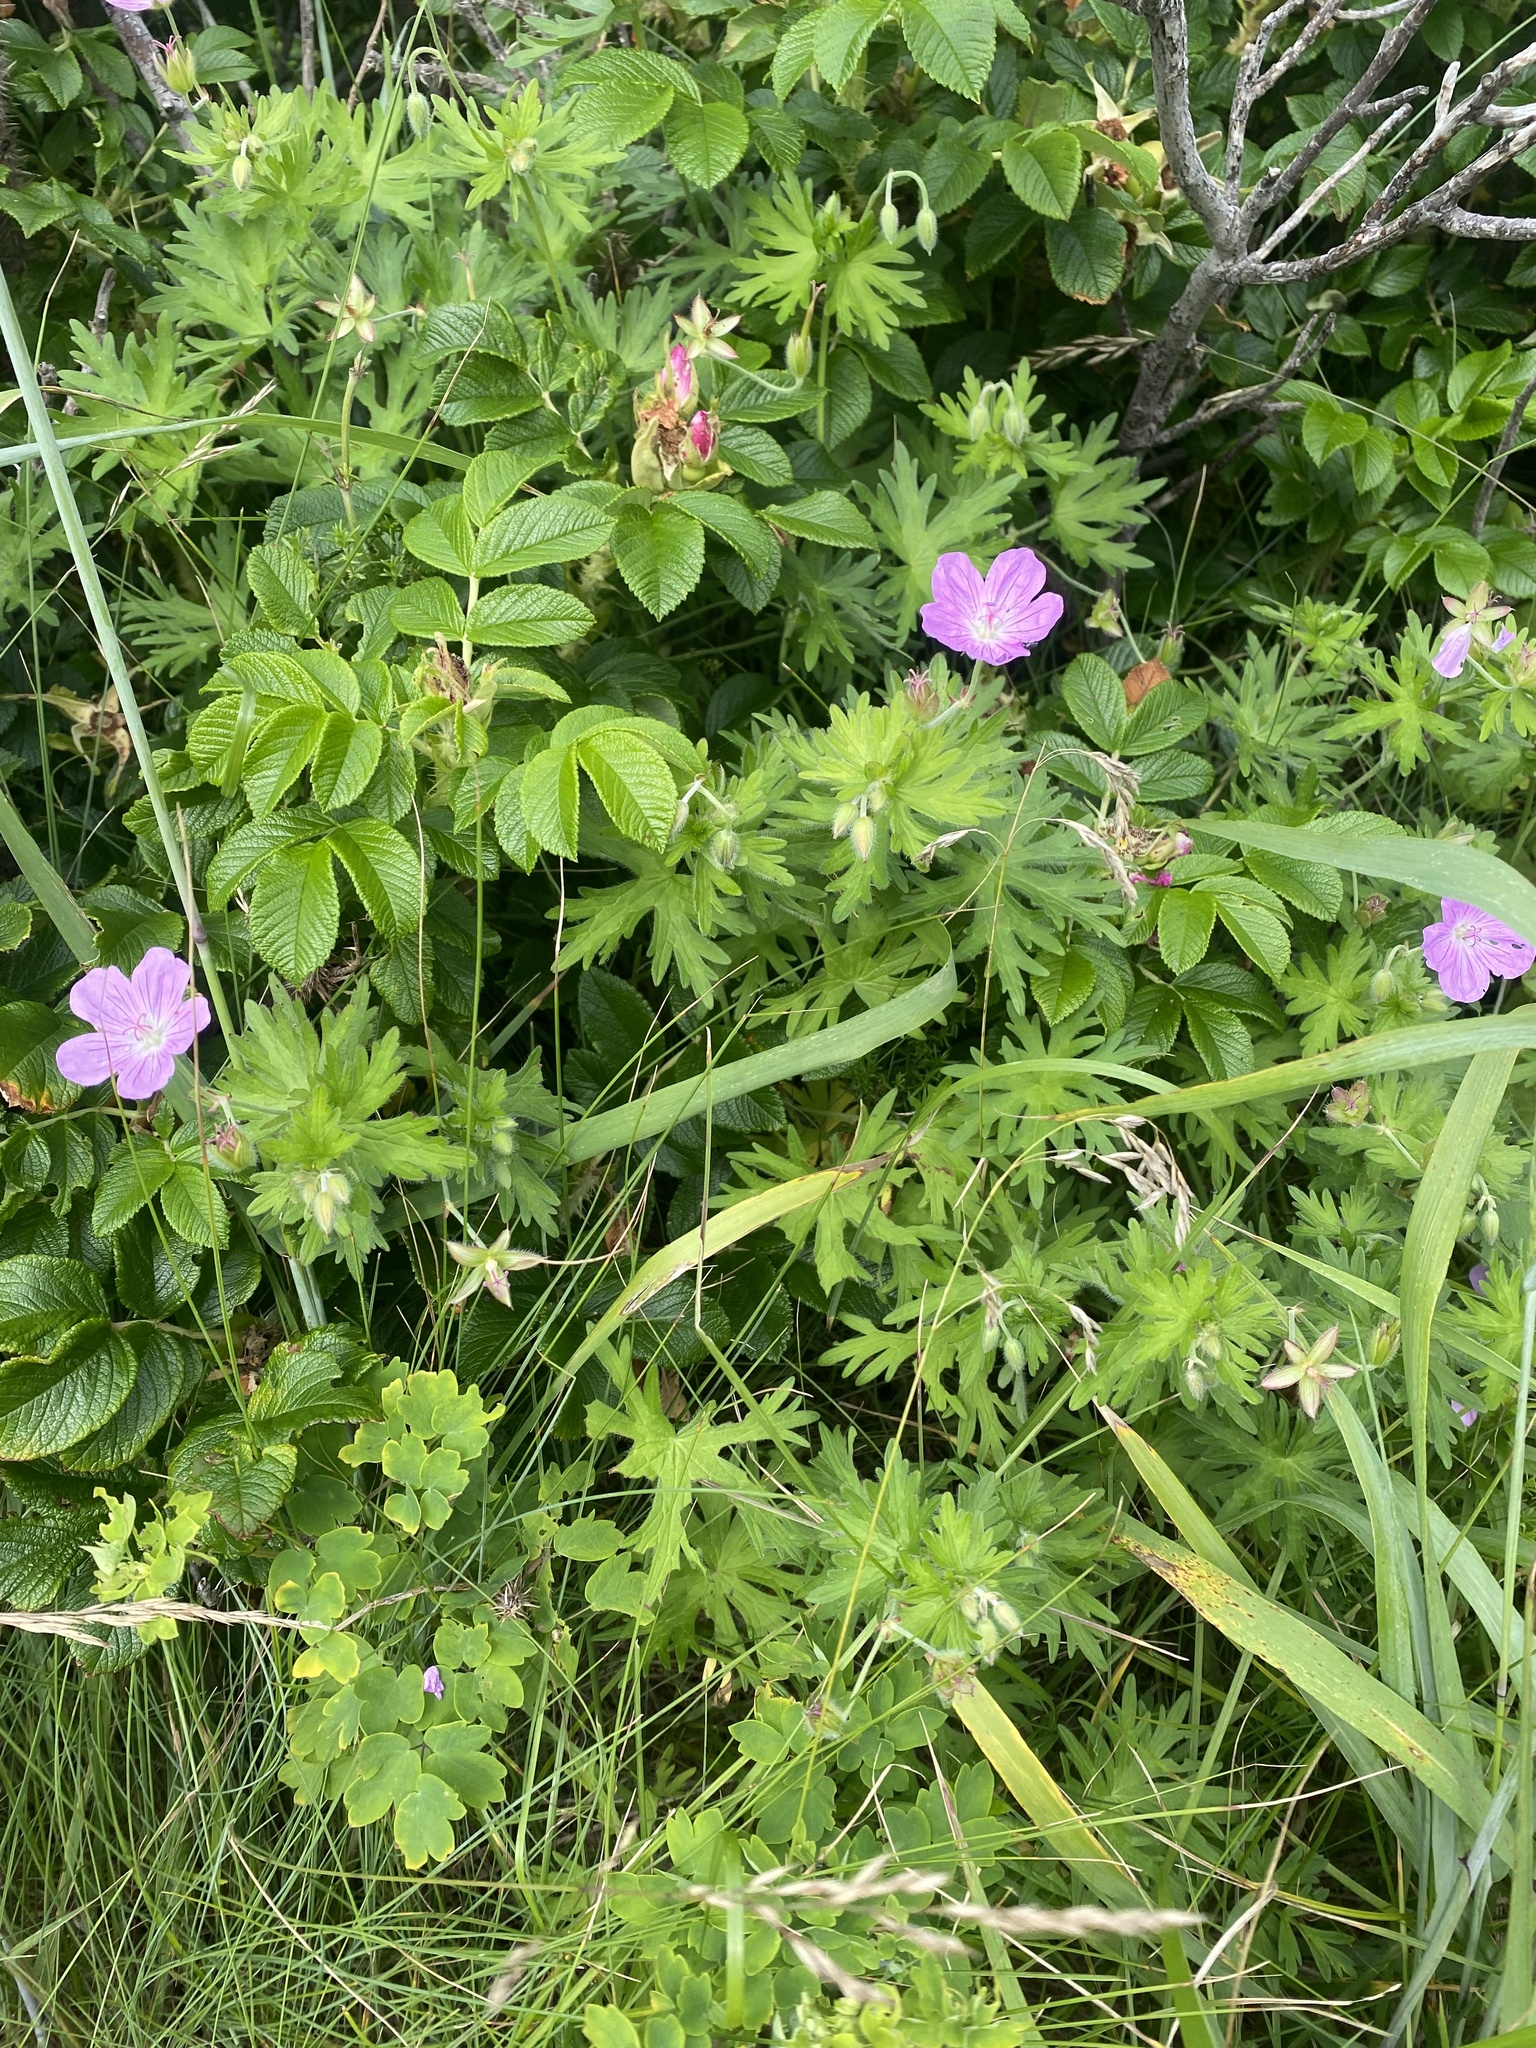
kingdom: Plantae
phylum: Tracheophyta
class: Magnoliopsida
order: Geraniales
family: Geraniaceae
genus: Geranium
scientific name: Geranium yesoense
